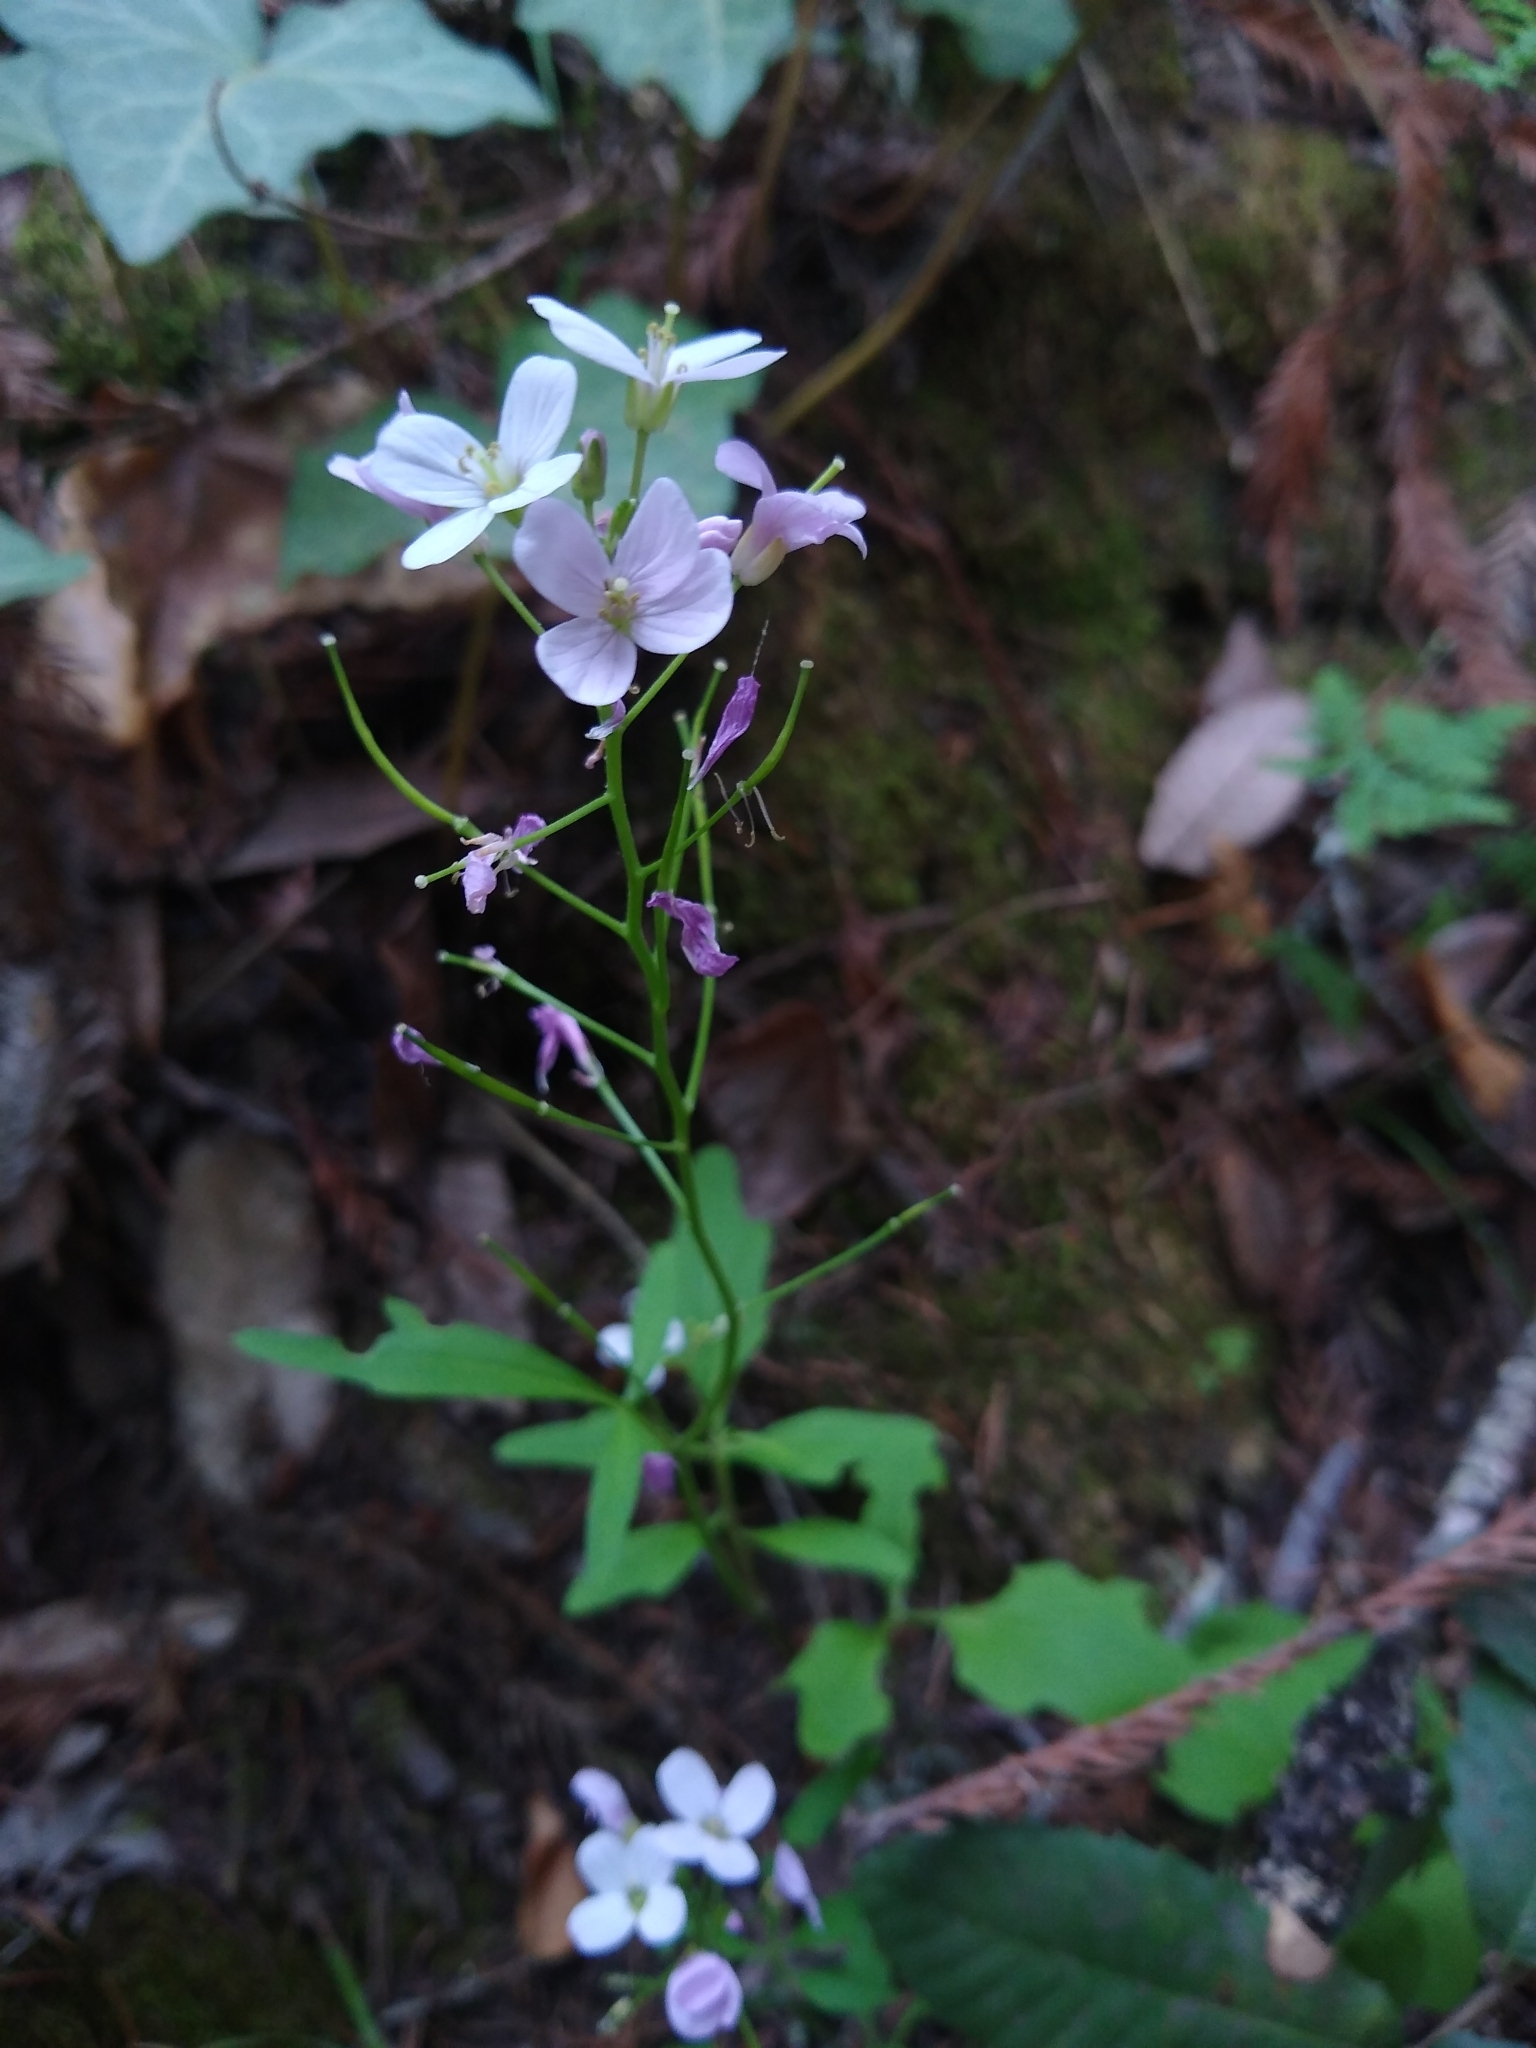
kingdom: Plantae
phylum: Tracheophyta
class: Magnoliopsida
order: Brassicales
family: Brassicaceae
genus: Cardamine
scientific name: Cardamine californica
